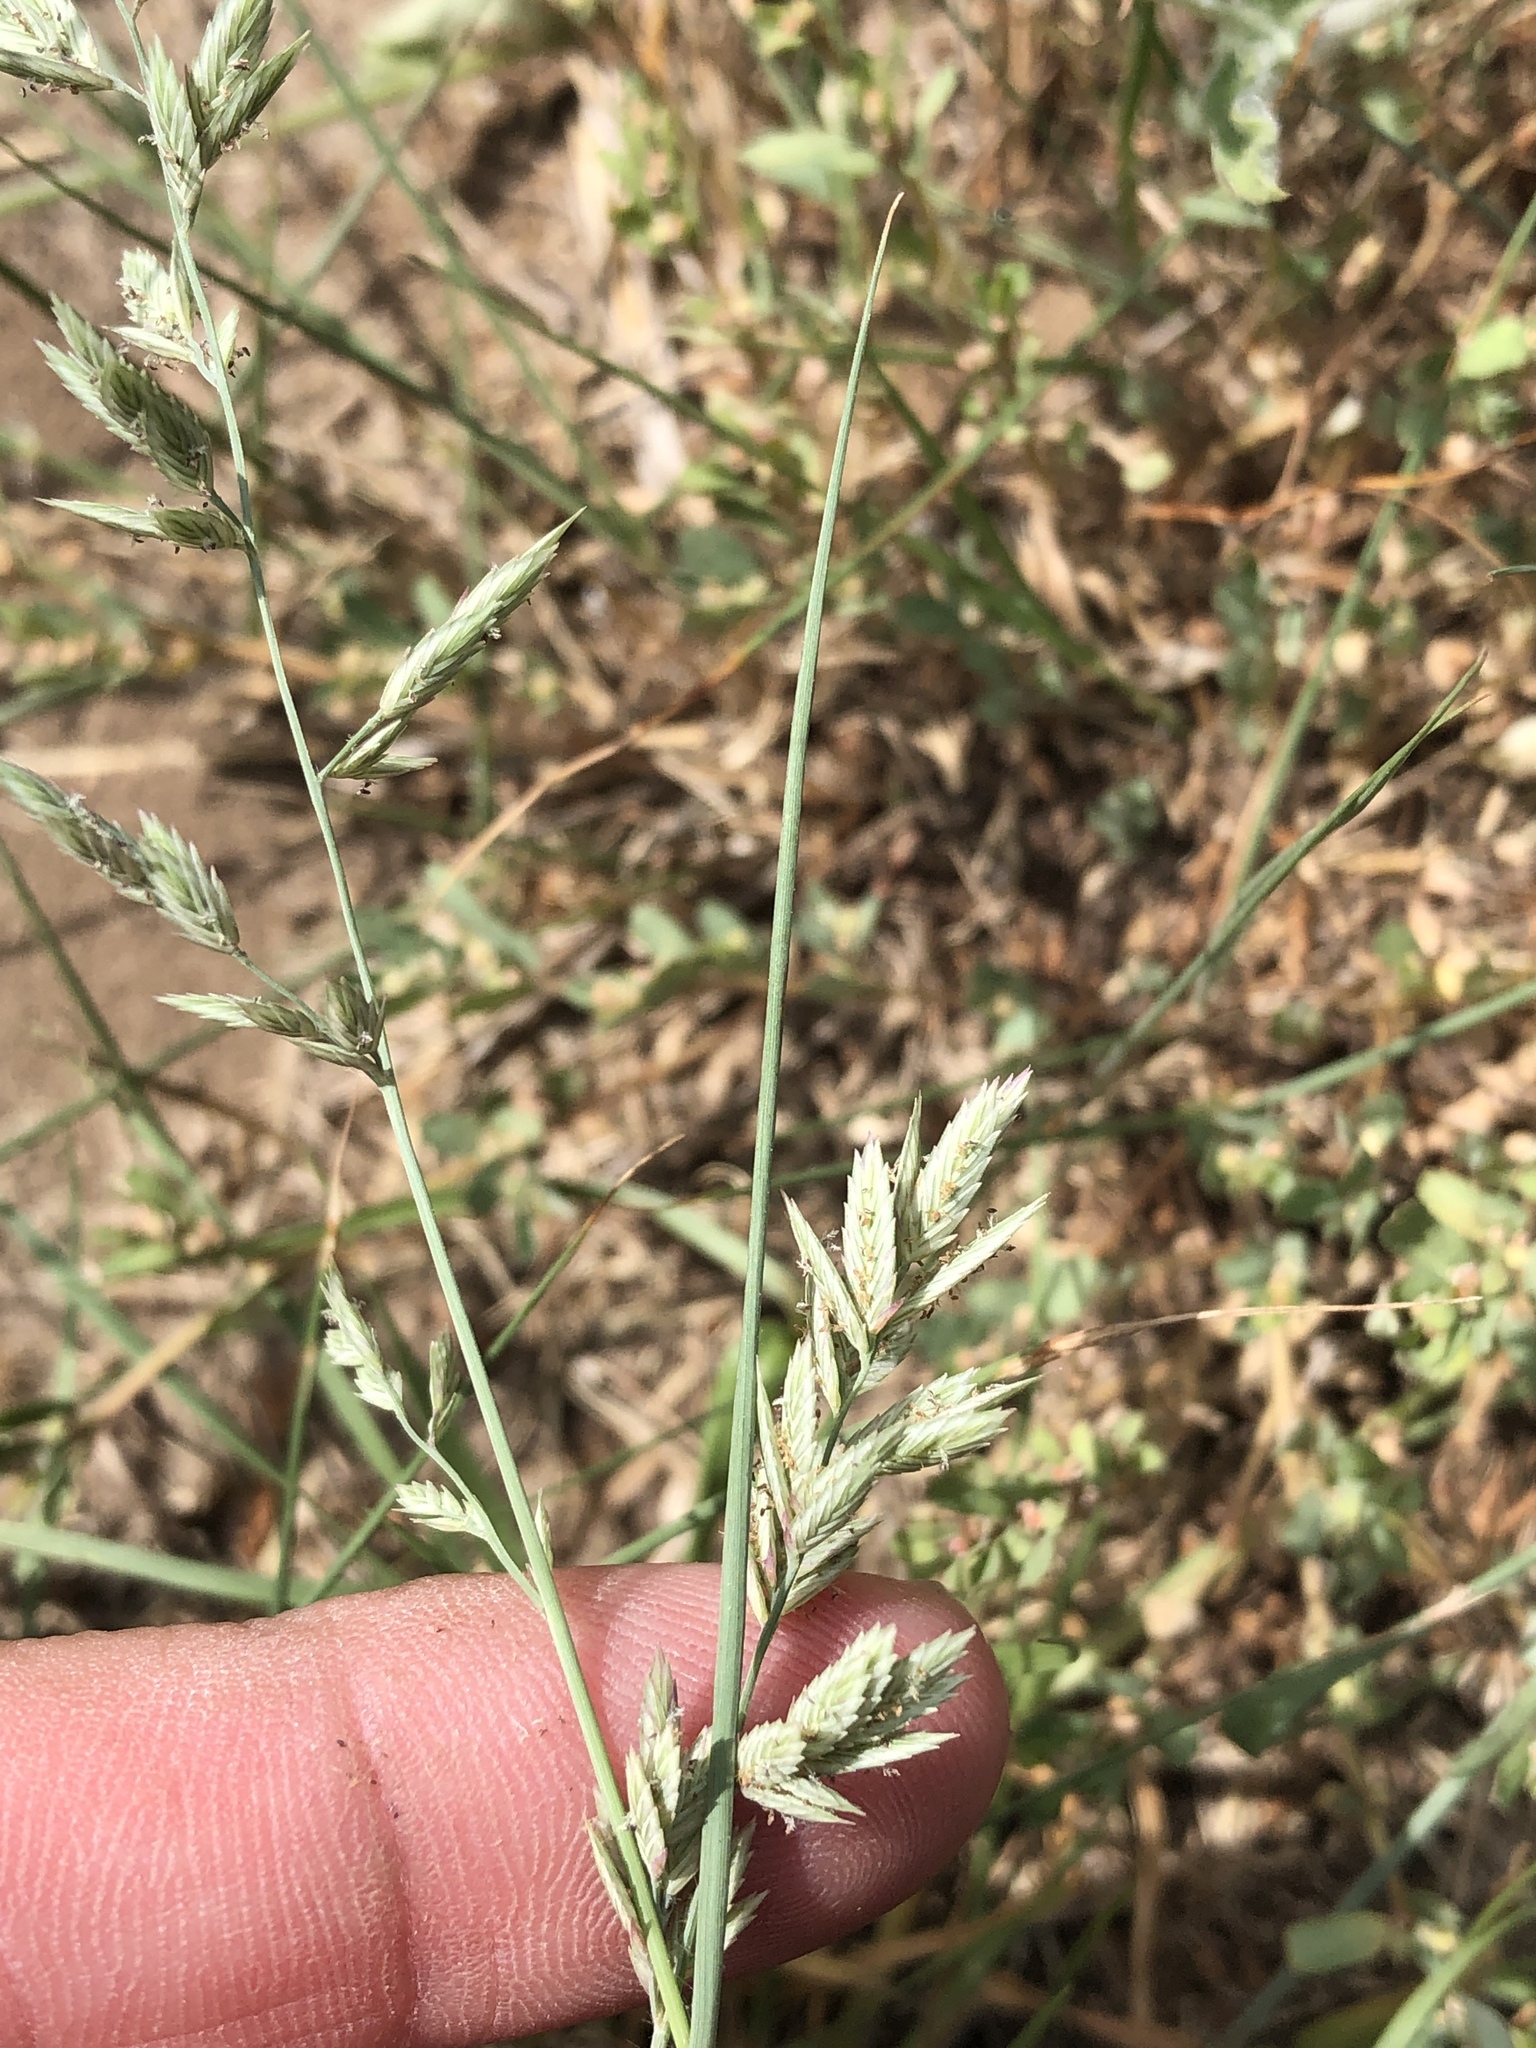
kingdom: Plantae
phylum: Tracheophyta
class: Liliopsida
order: Poales
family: Poaceae
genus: Eragrostis
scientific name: Eragrostis secundiflora
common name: Red love grass
